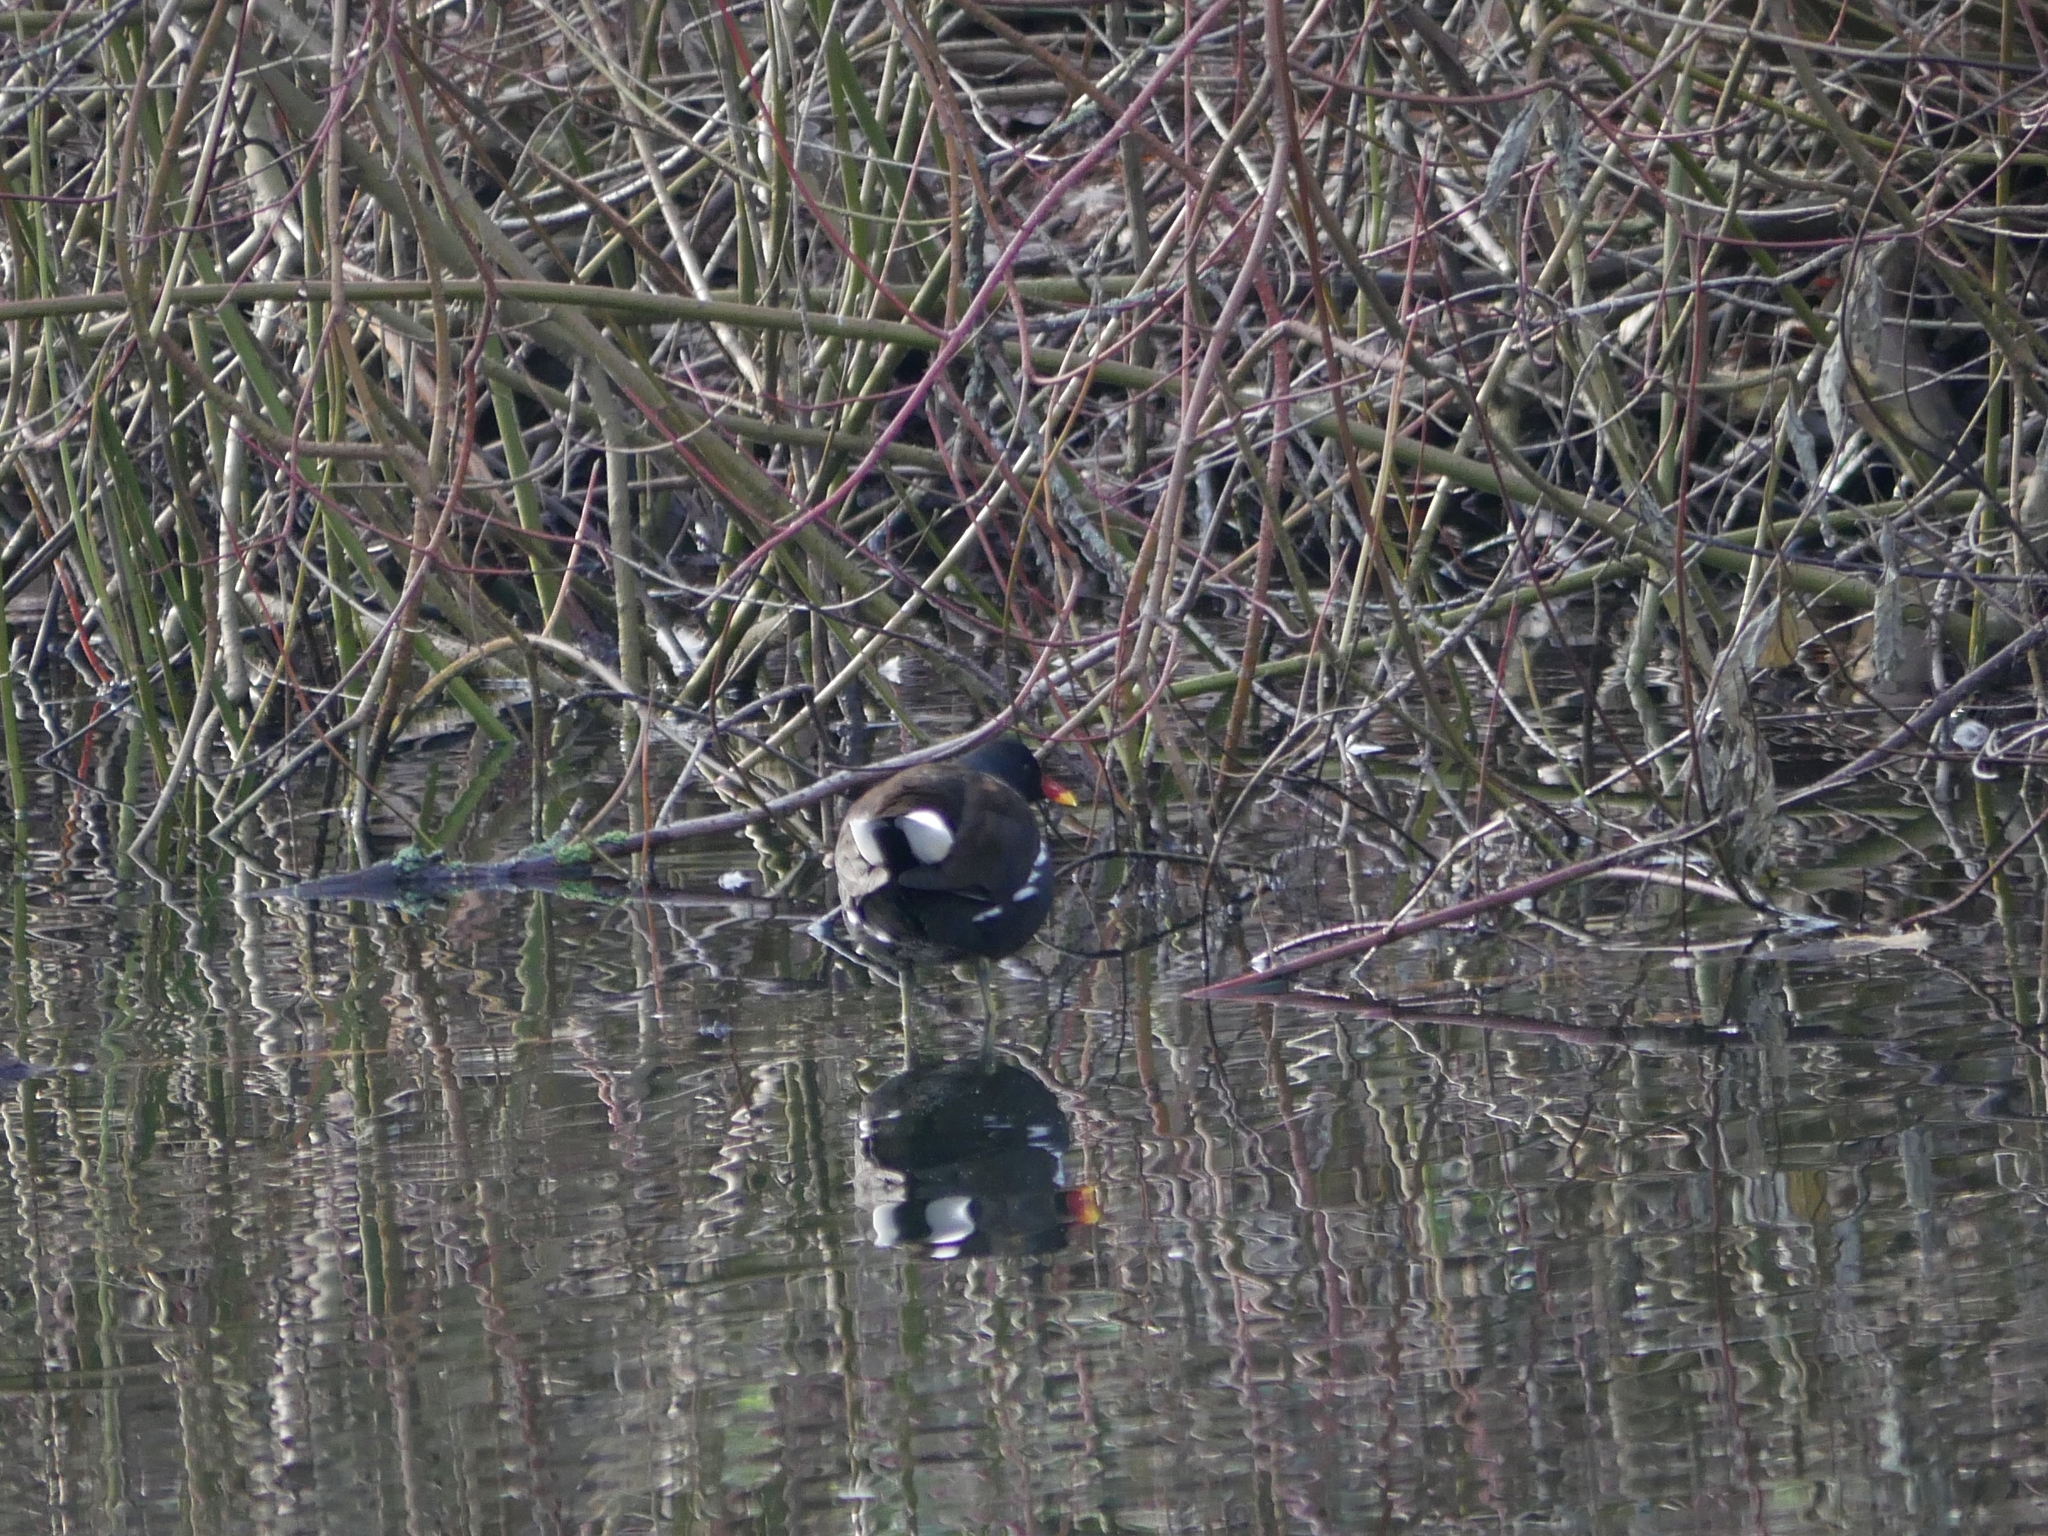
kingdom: Animalia
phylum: Chordata
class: Aves
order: Gruiformes
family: Rallidae
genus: Gallinula
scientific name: Gallinula chloropus
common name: Common moorhen
